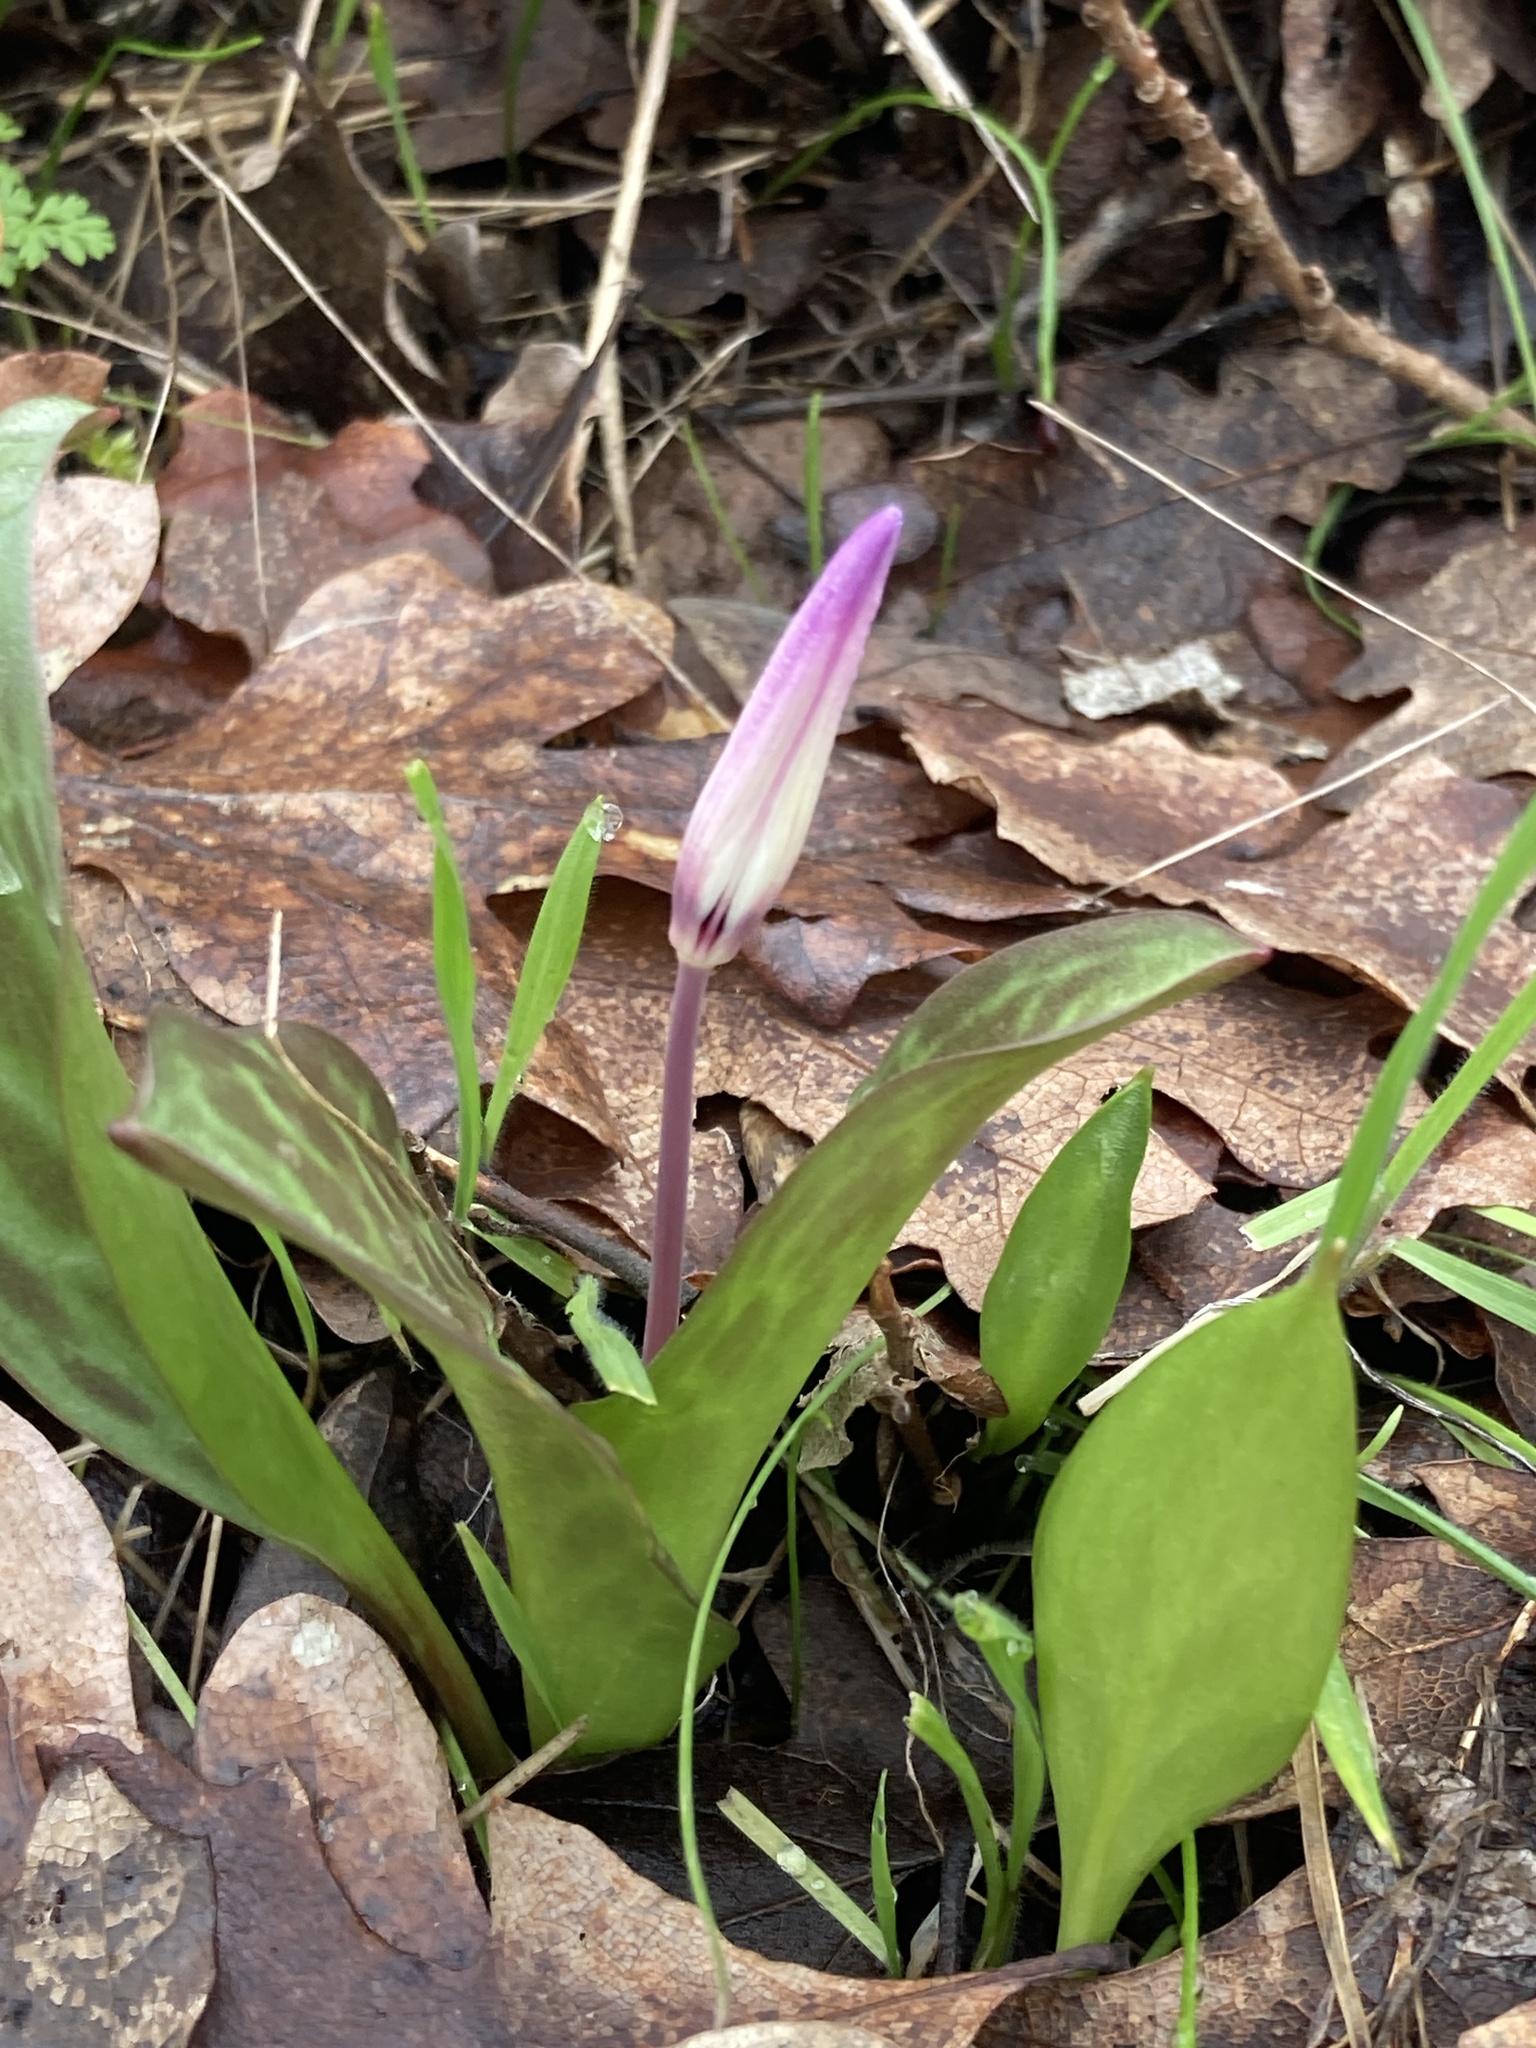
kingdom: Plantae
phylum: Tracheophyta
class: Liliopsida
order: Liliales
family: Liliaceae
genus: Erythronium
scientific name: Erythronium hendersonii
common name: Henderson's fawn-lily
